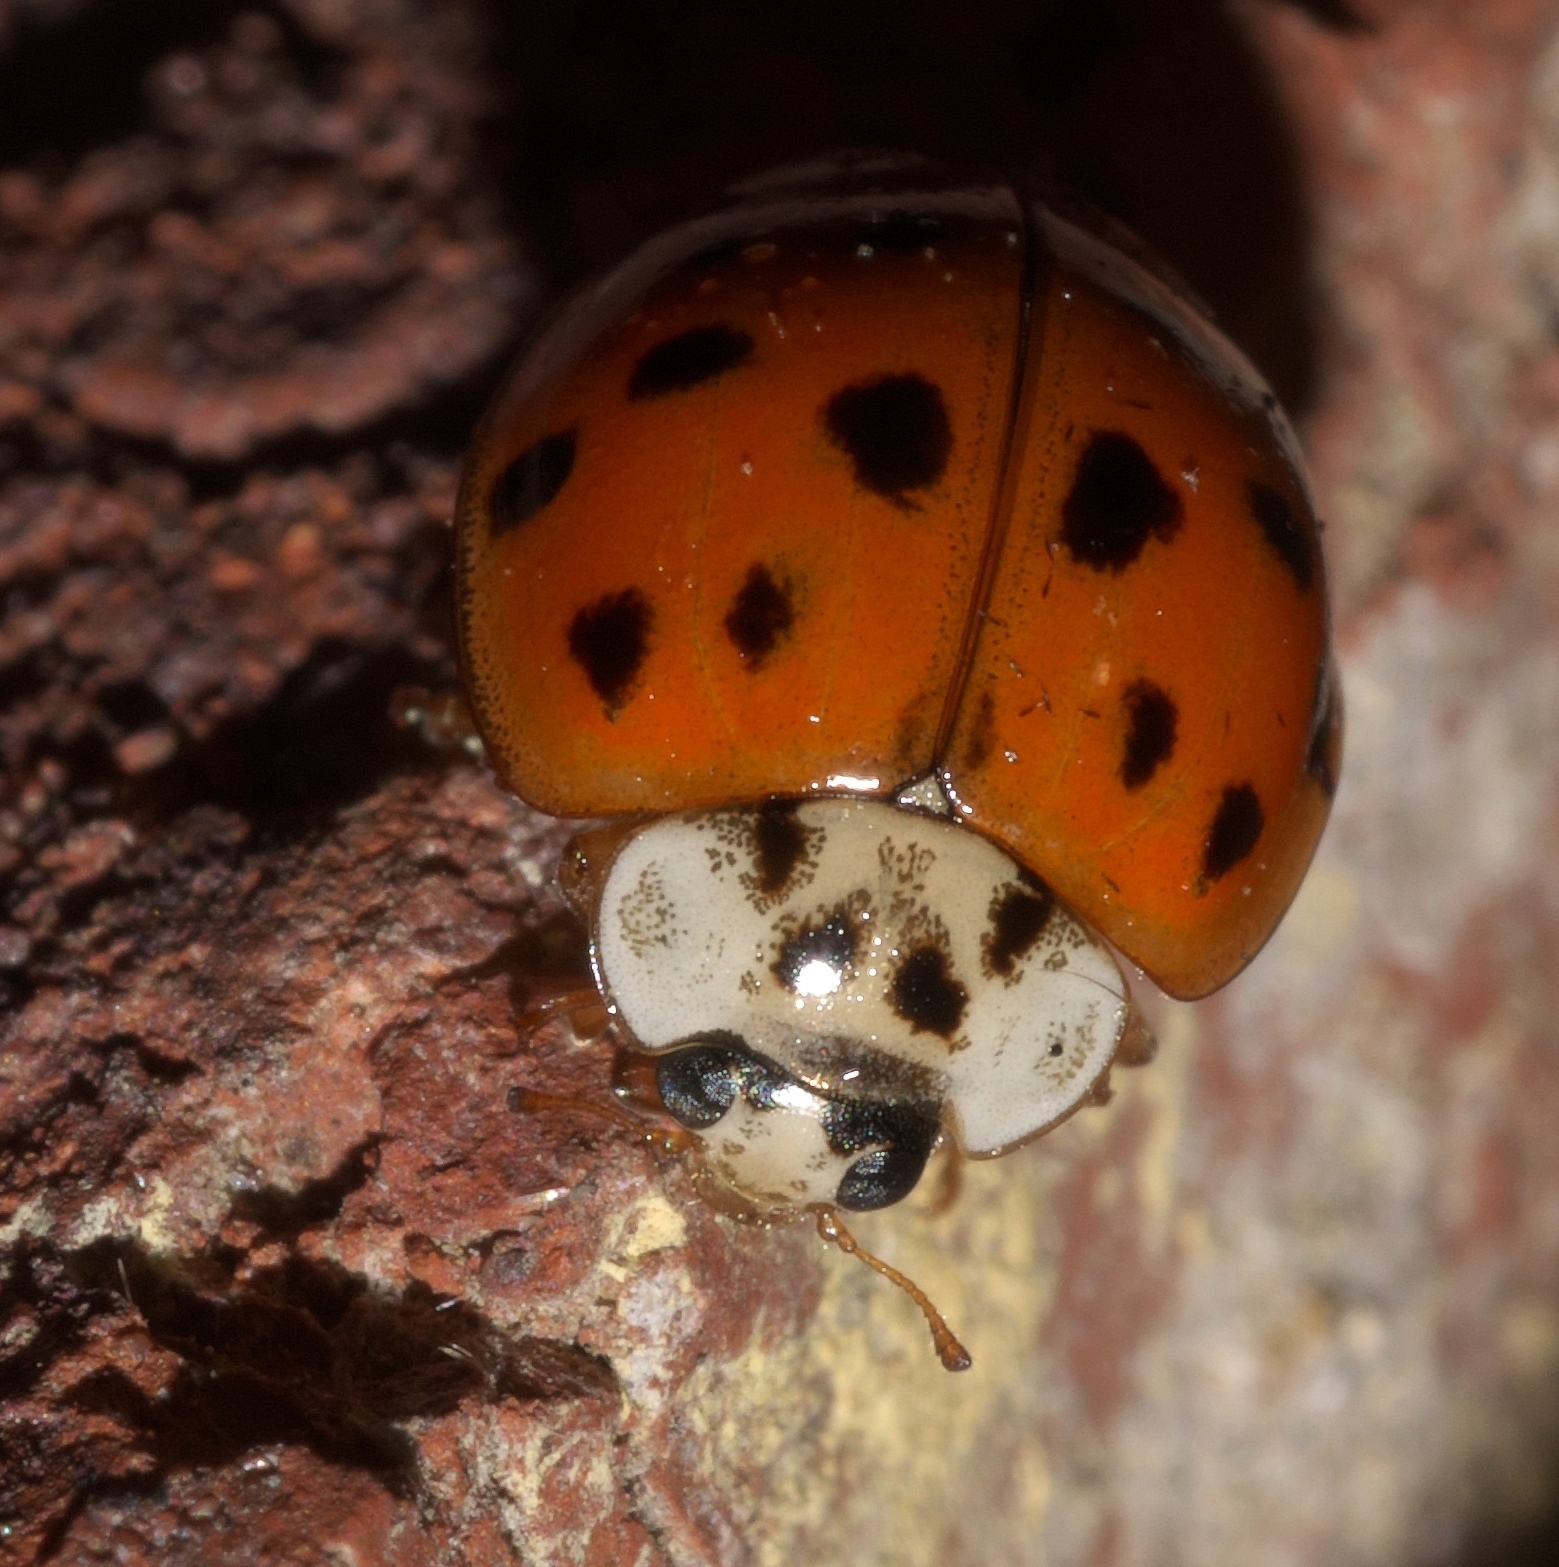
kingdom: Animalia
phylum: Arthropoda
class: Insecta
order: Coleoptera
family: Coccinellidae
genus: Harmonia
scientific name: Harmonia axyridis
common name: Harlequin ladybird
